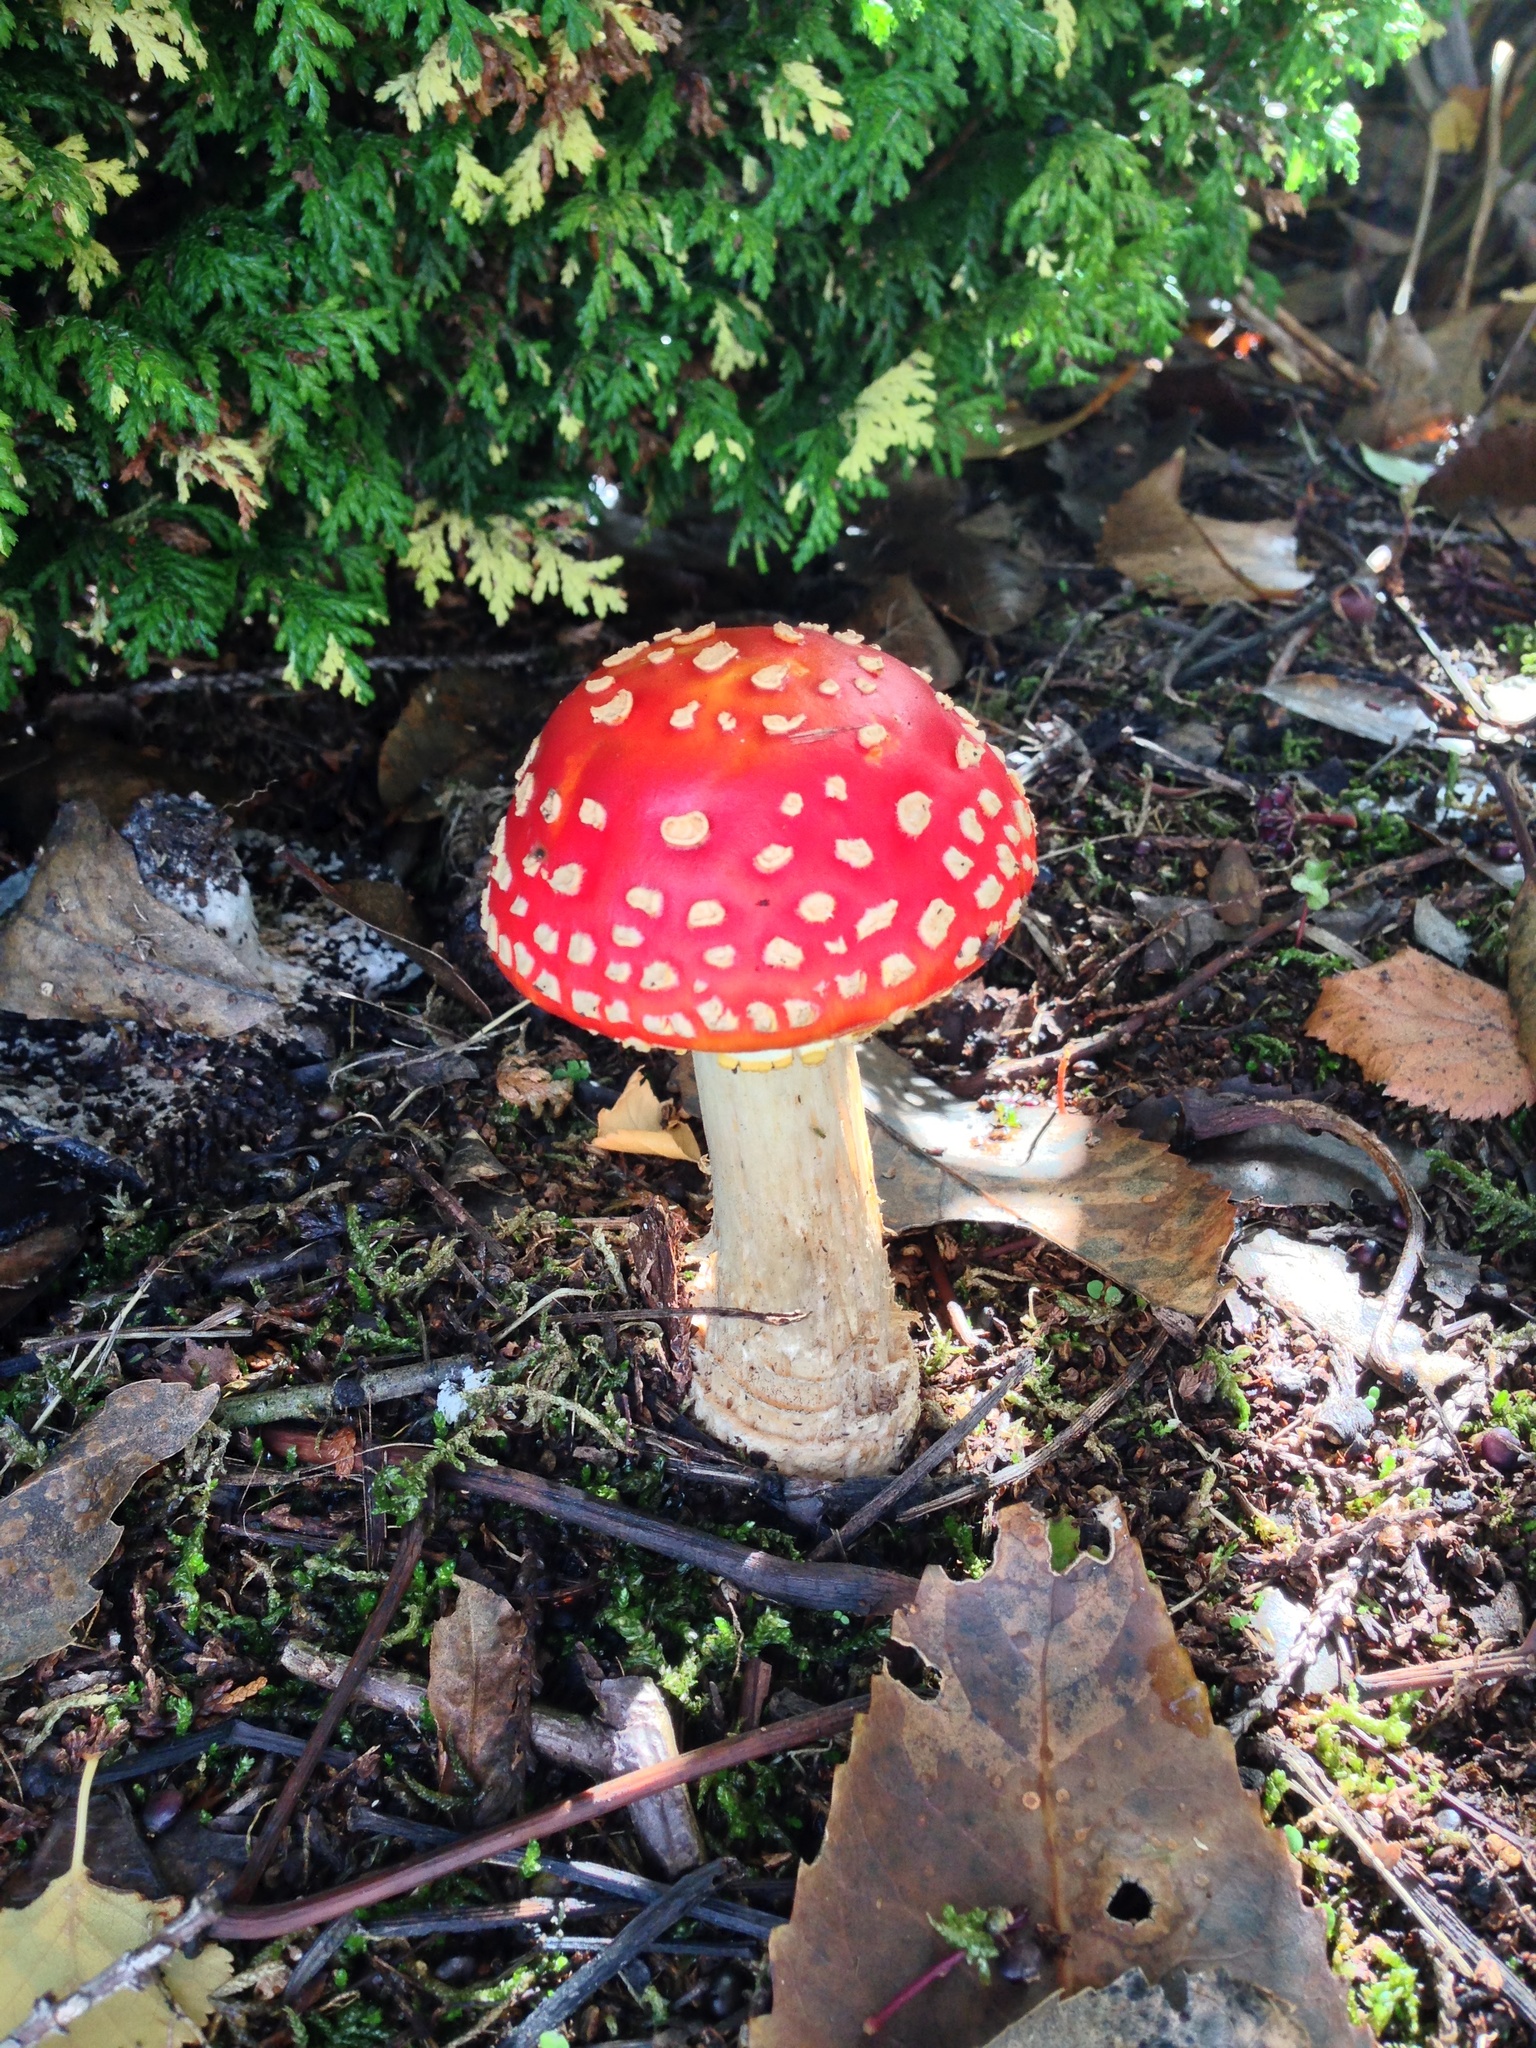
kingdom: Fungi
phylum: Basidiomycota
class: Agaricomycetes
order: Agaricales
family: Amanitaceae
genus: Amanita
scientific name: Amanita muscaria
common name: Fly agaric
